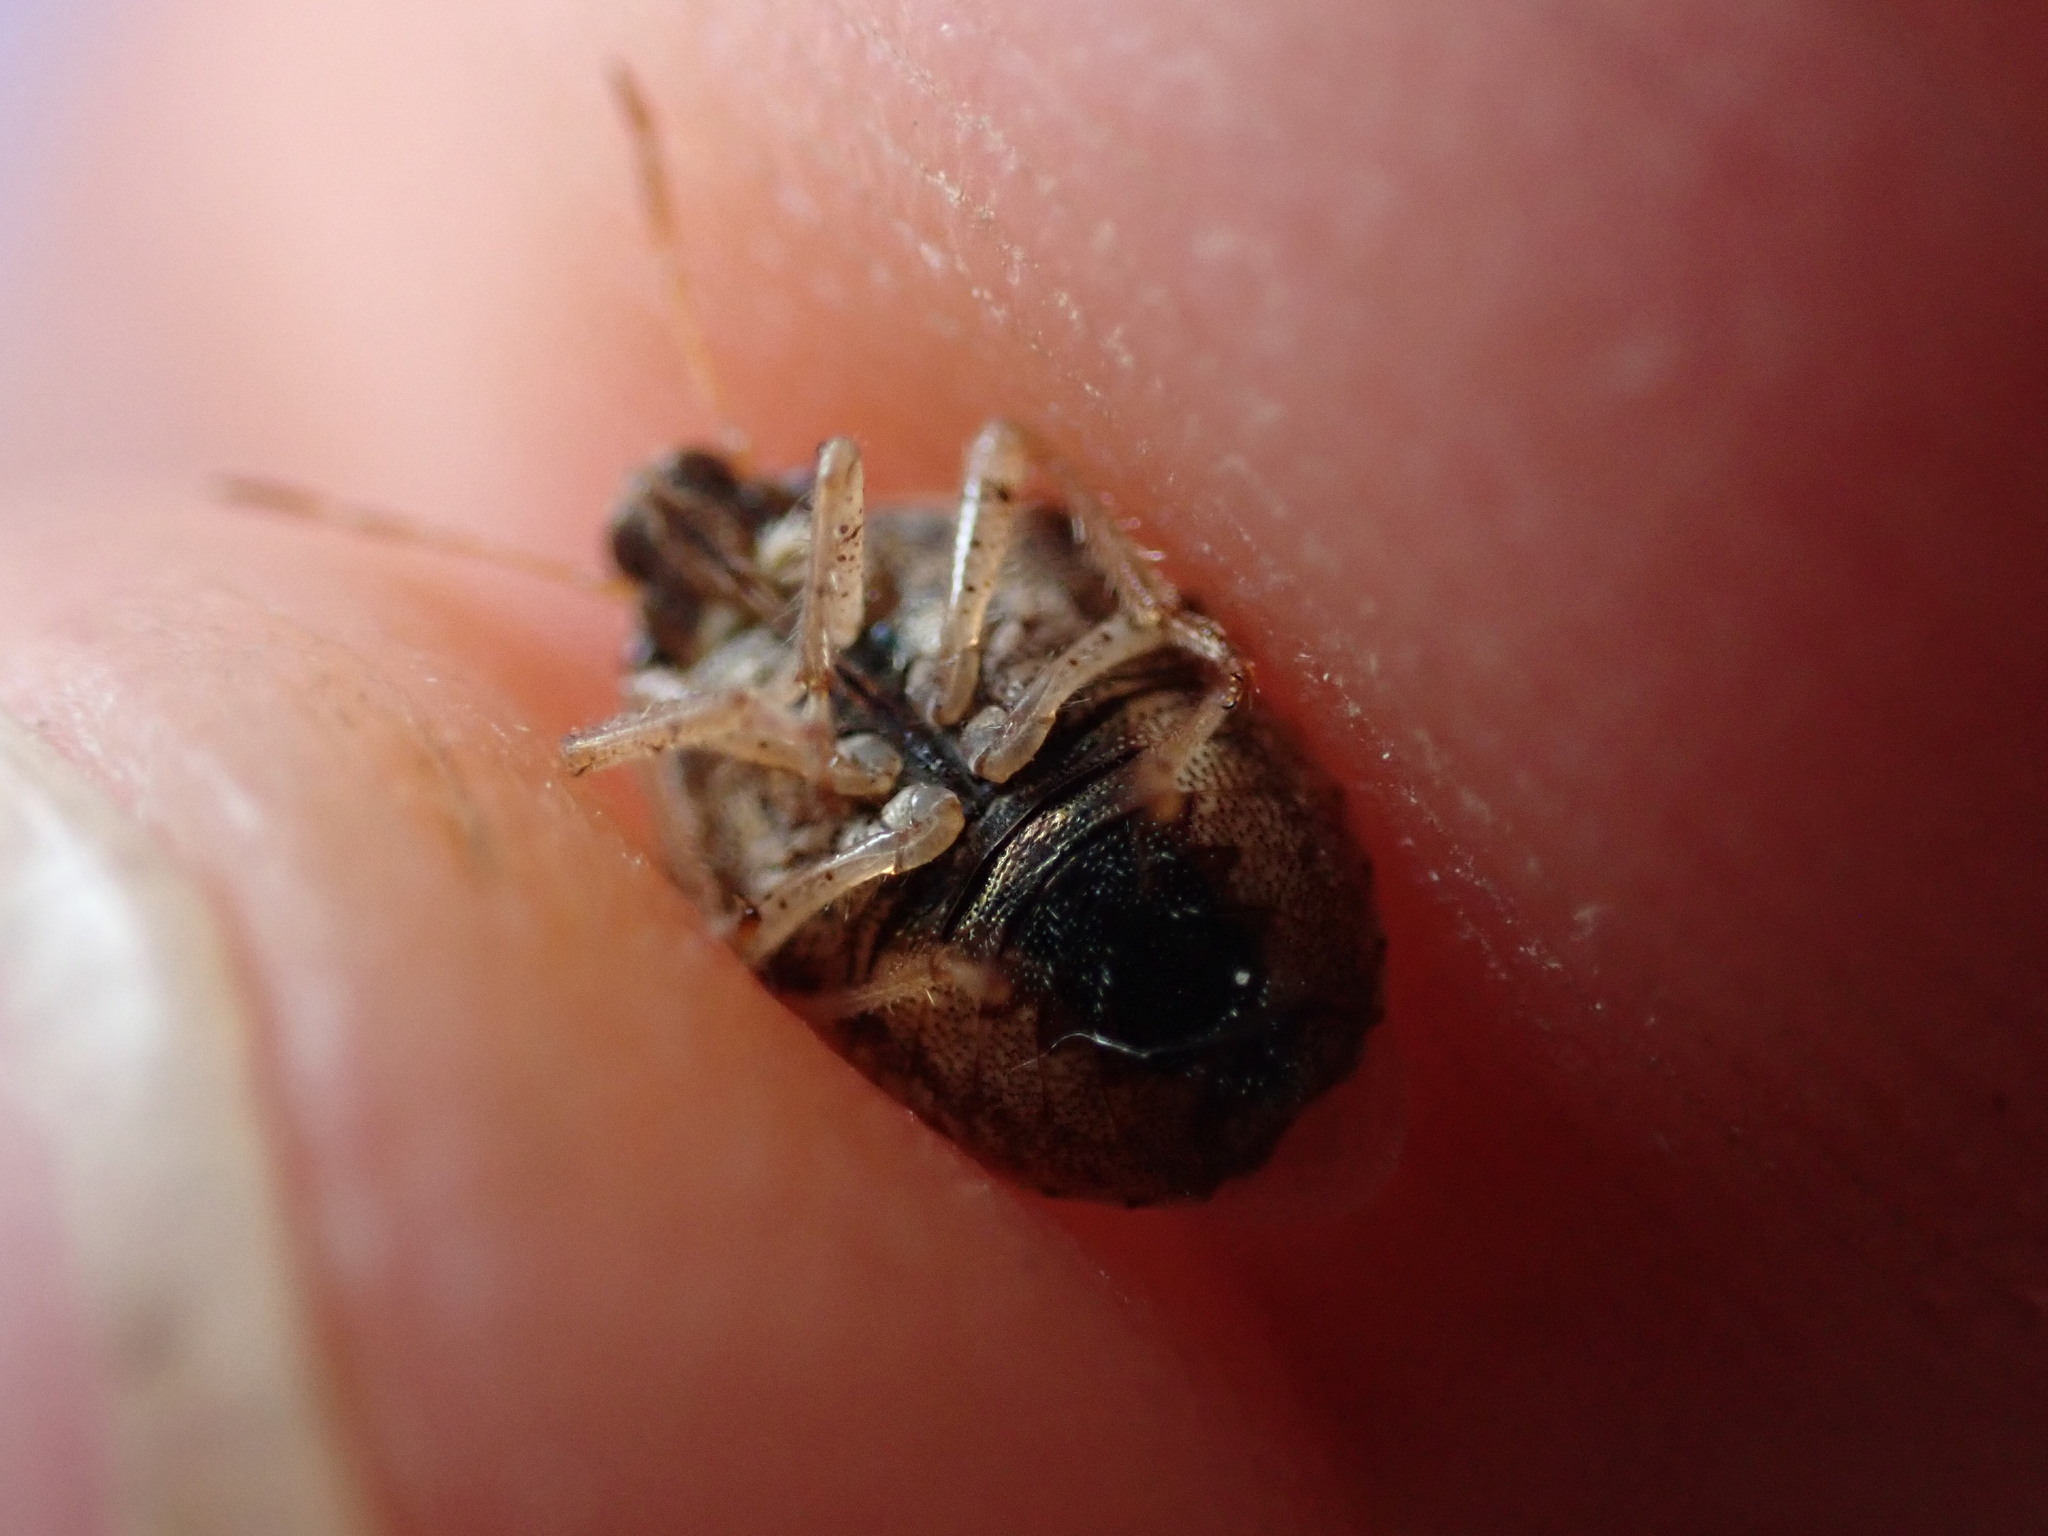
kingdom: Animalia
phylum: Arthropoda
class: Insecta
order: Hemiptera
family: Pentatomidae
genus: Eysarcoris
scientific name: Eysarcoris ventralis
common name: White-spotted stink bug
